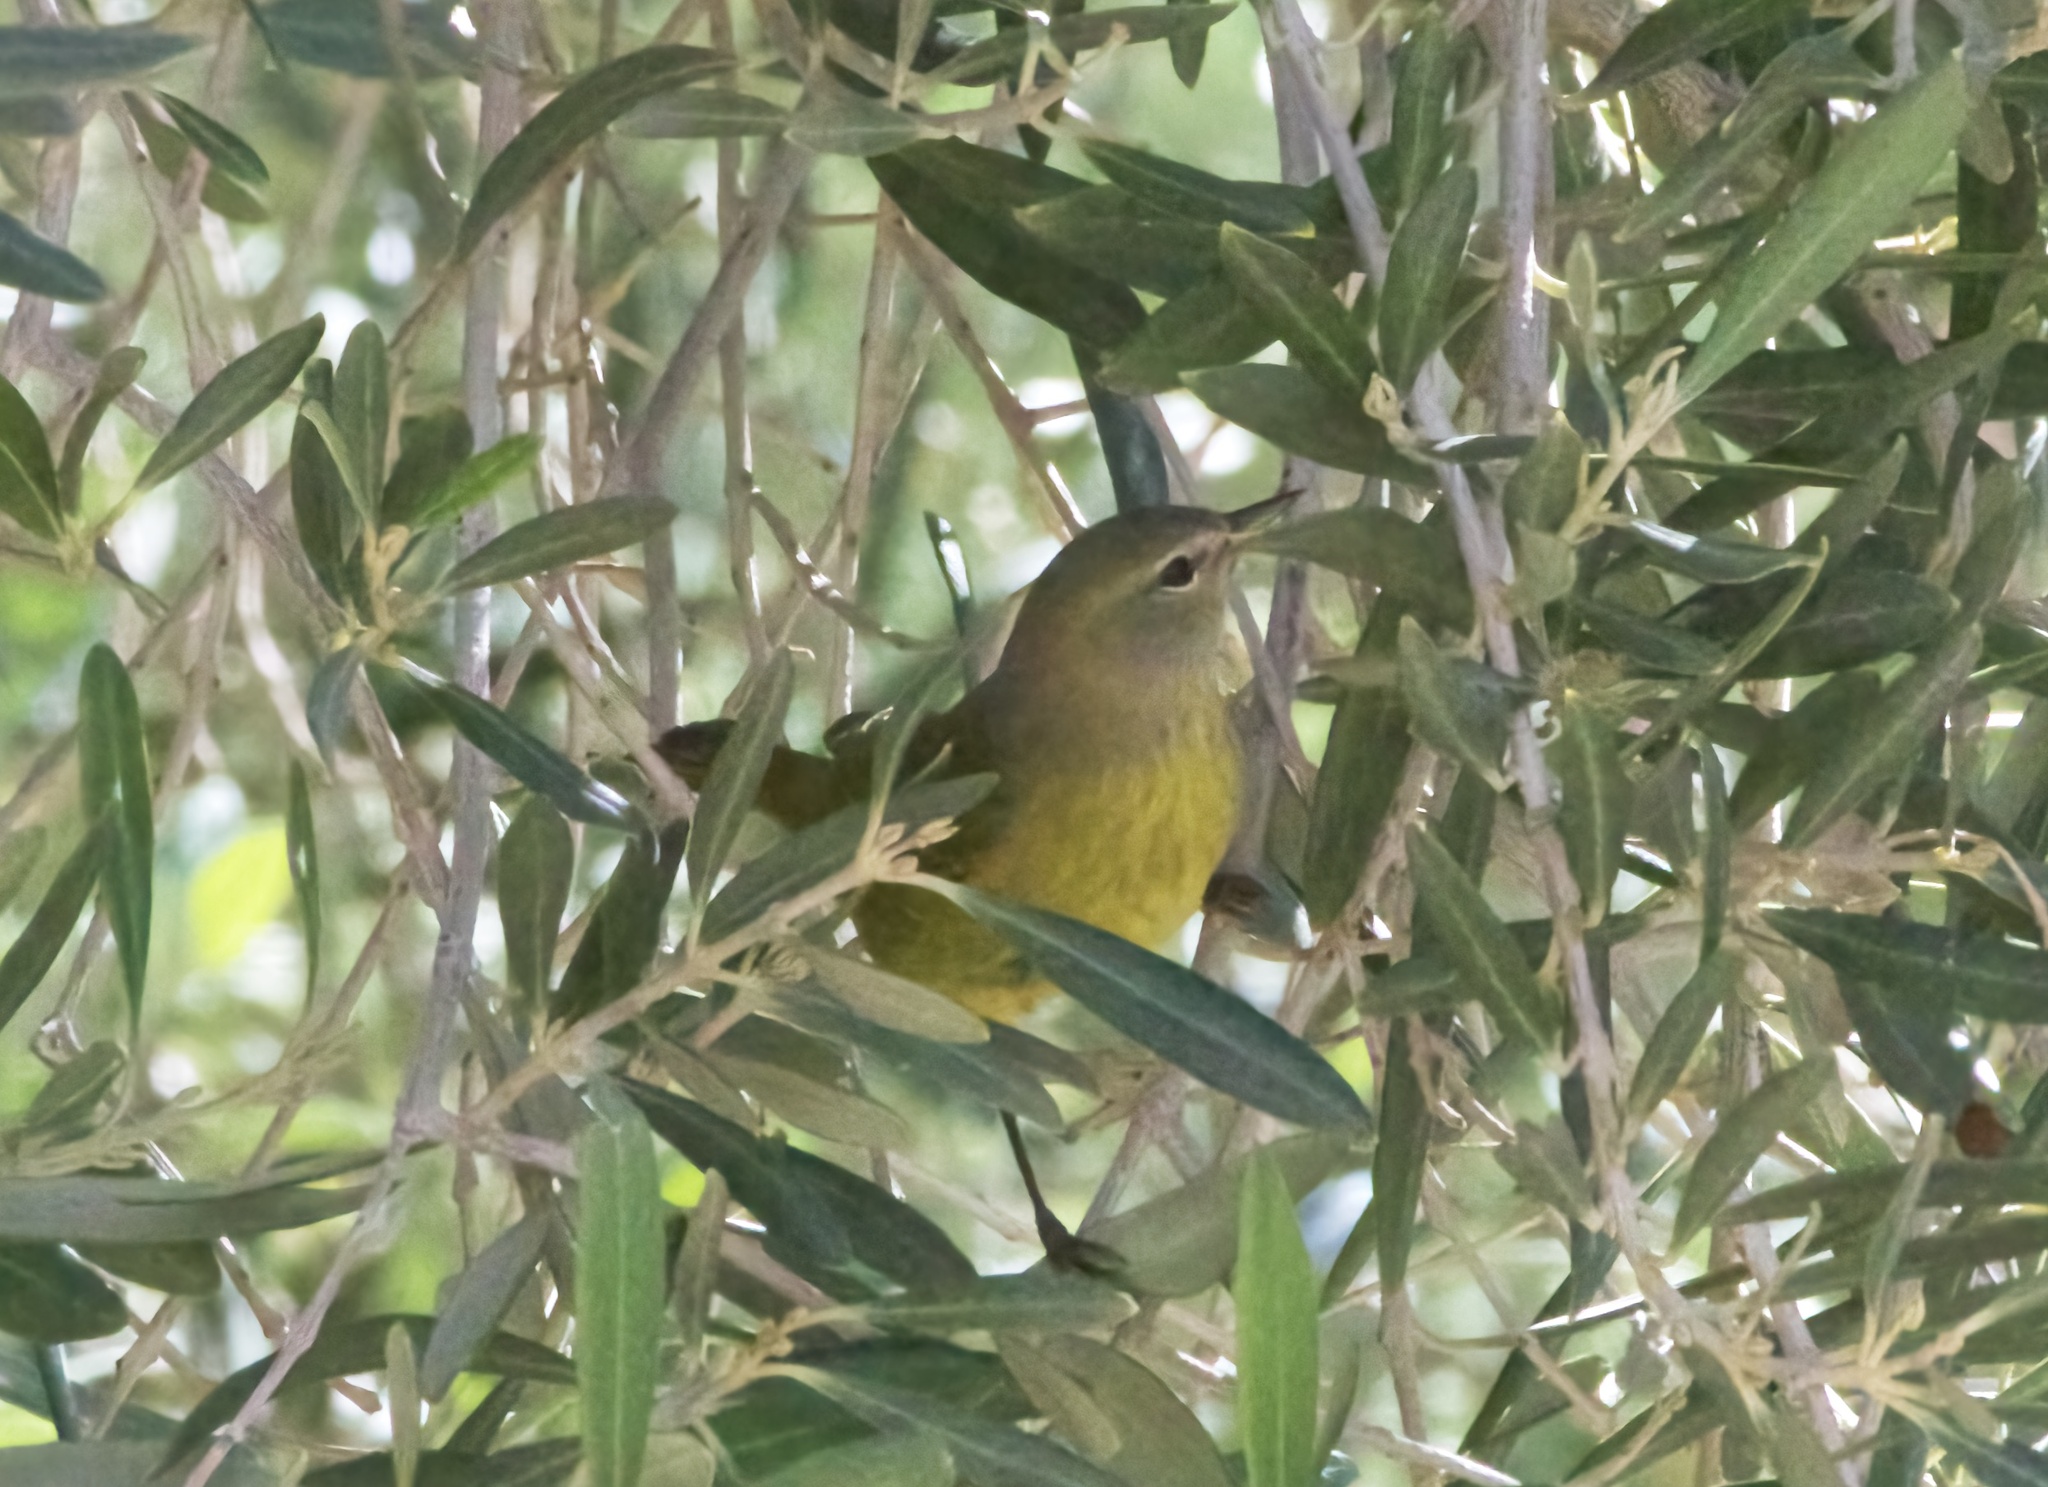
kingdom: Animalia
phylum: Chordata
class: Aves
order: Passeriformes
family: Parulidae
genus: Leiothlypis
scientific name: Leiothlypis celata
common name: Orange-crowned warbler
